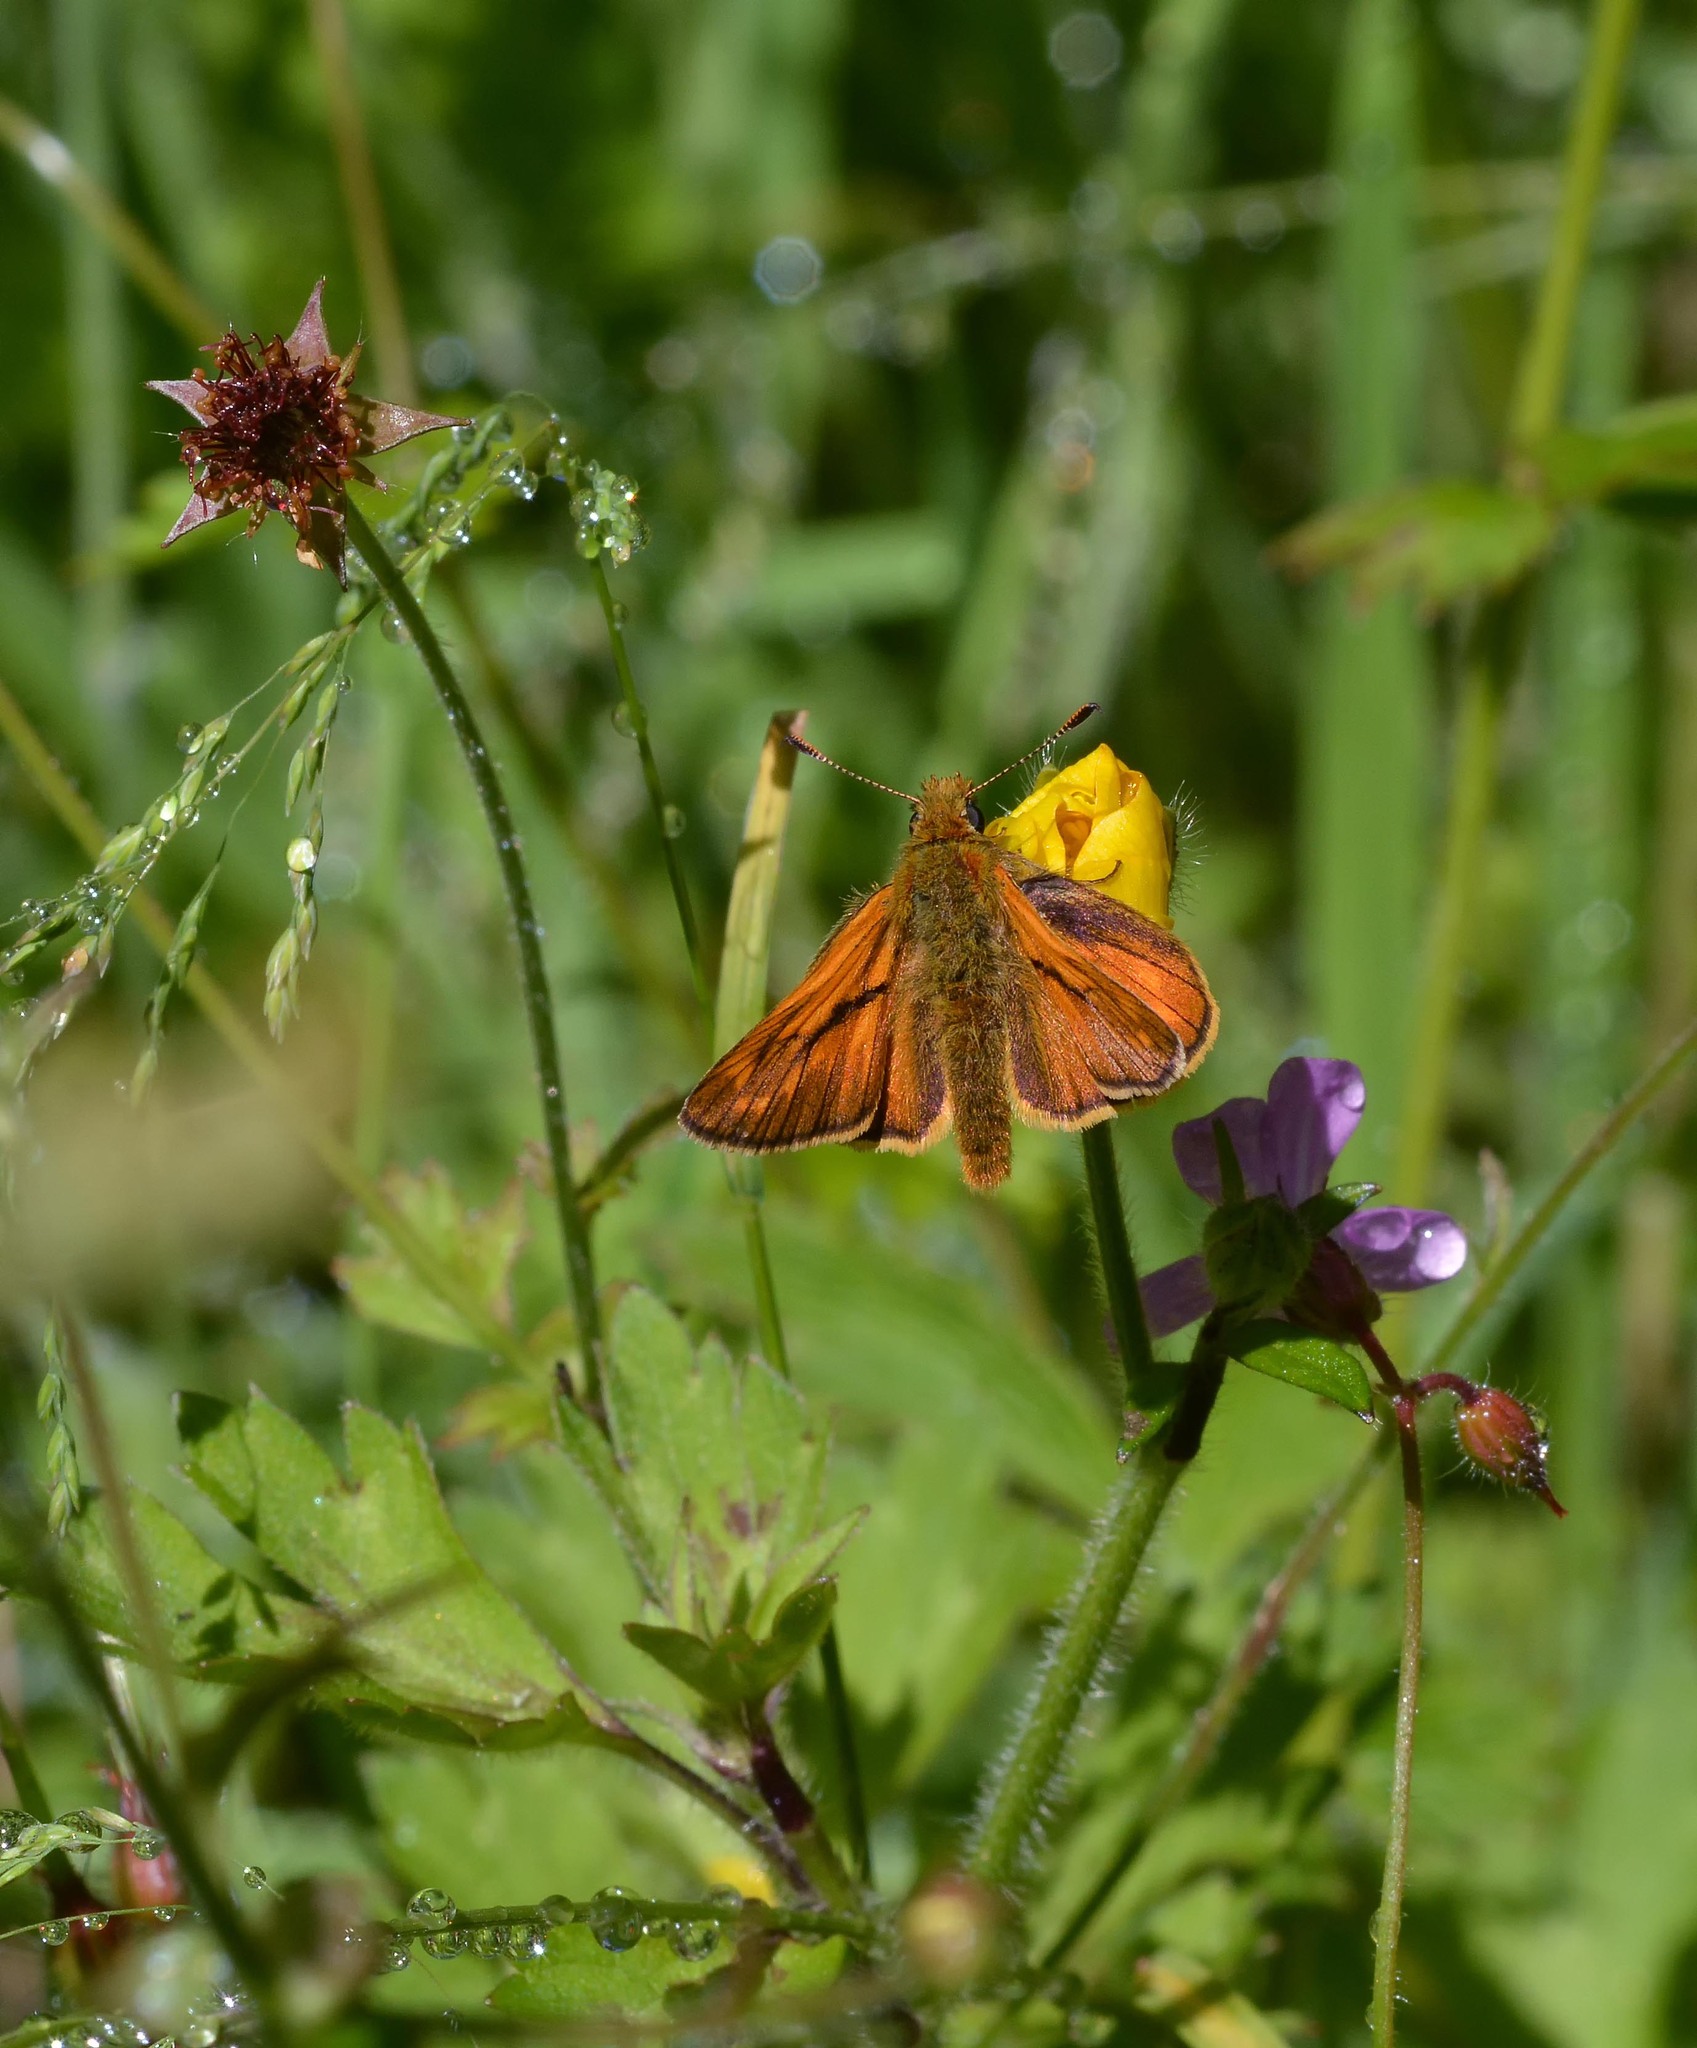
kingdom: Animalia
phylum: Arthropoda
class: Insecta
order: Lepidoptera
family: Hesperiidae
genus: Ochlodes
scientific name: Ochlodes venata
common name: Large skipper
